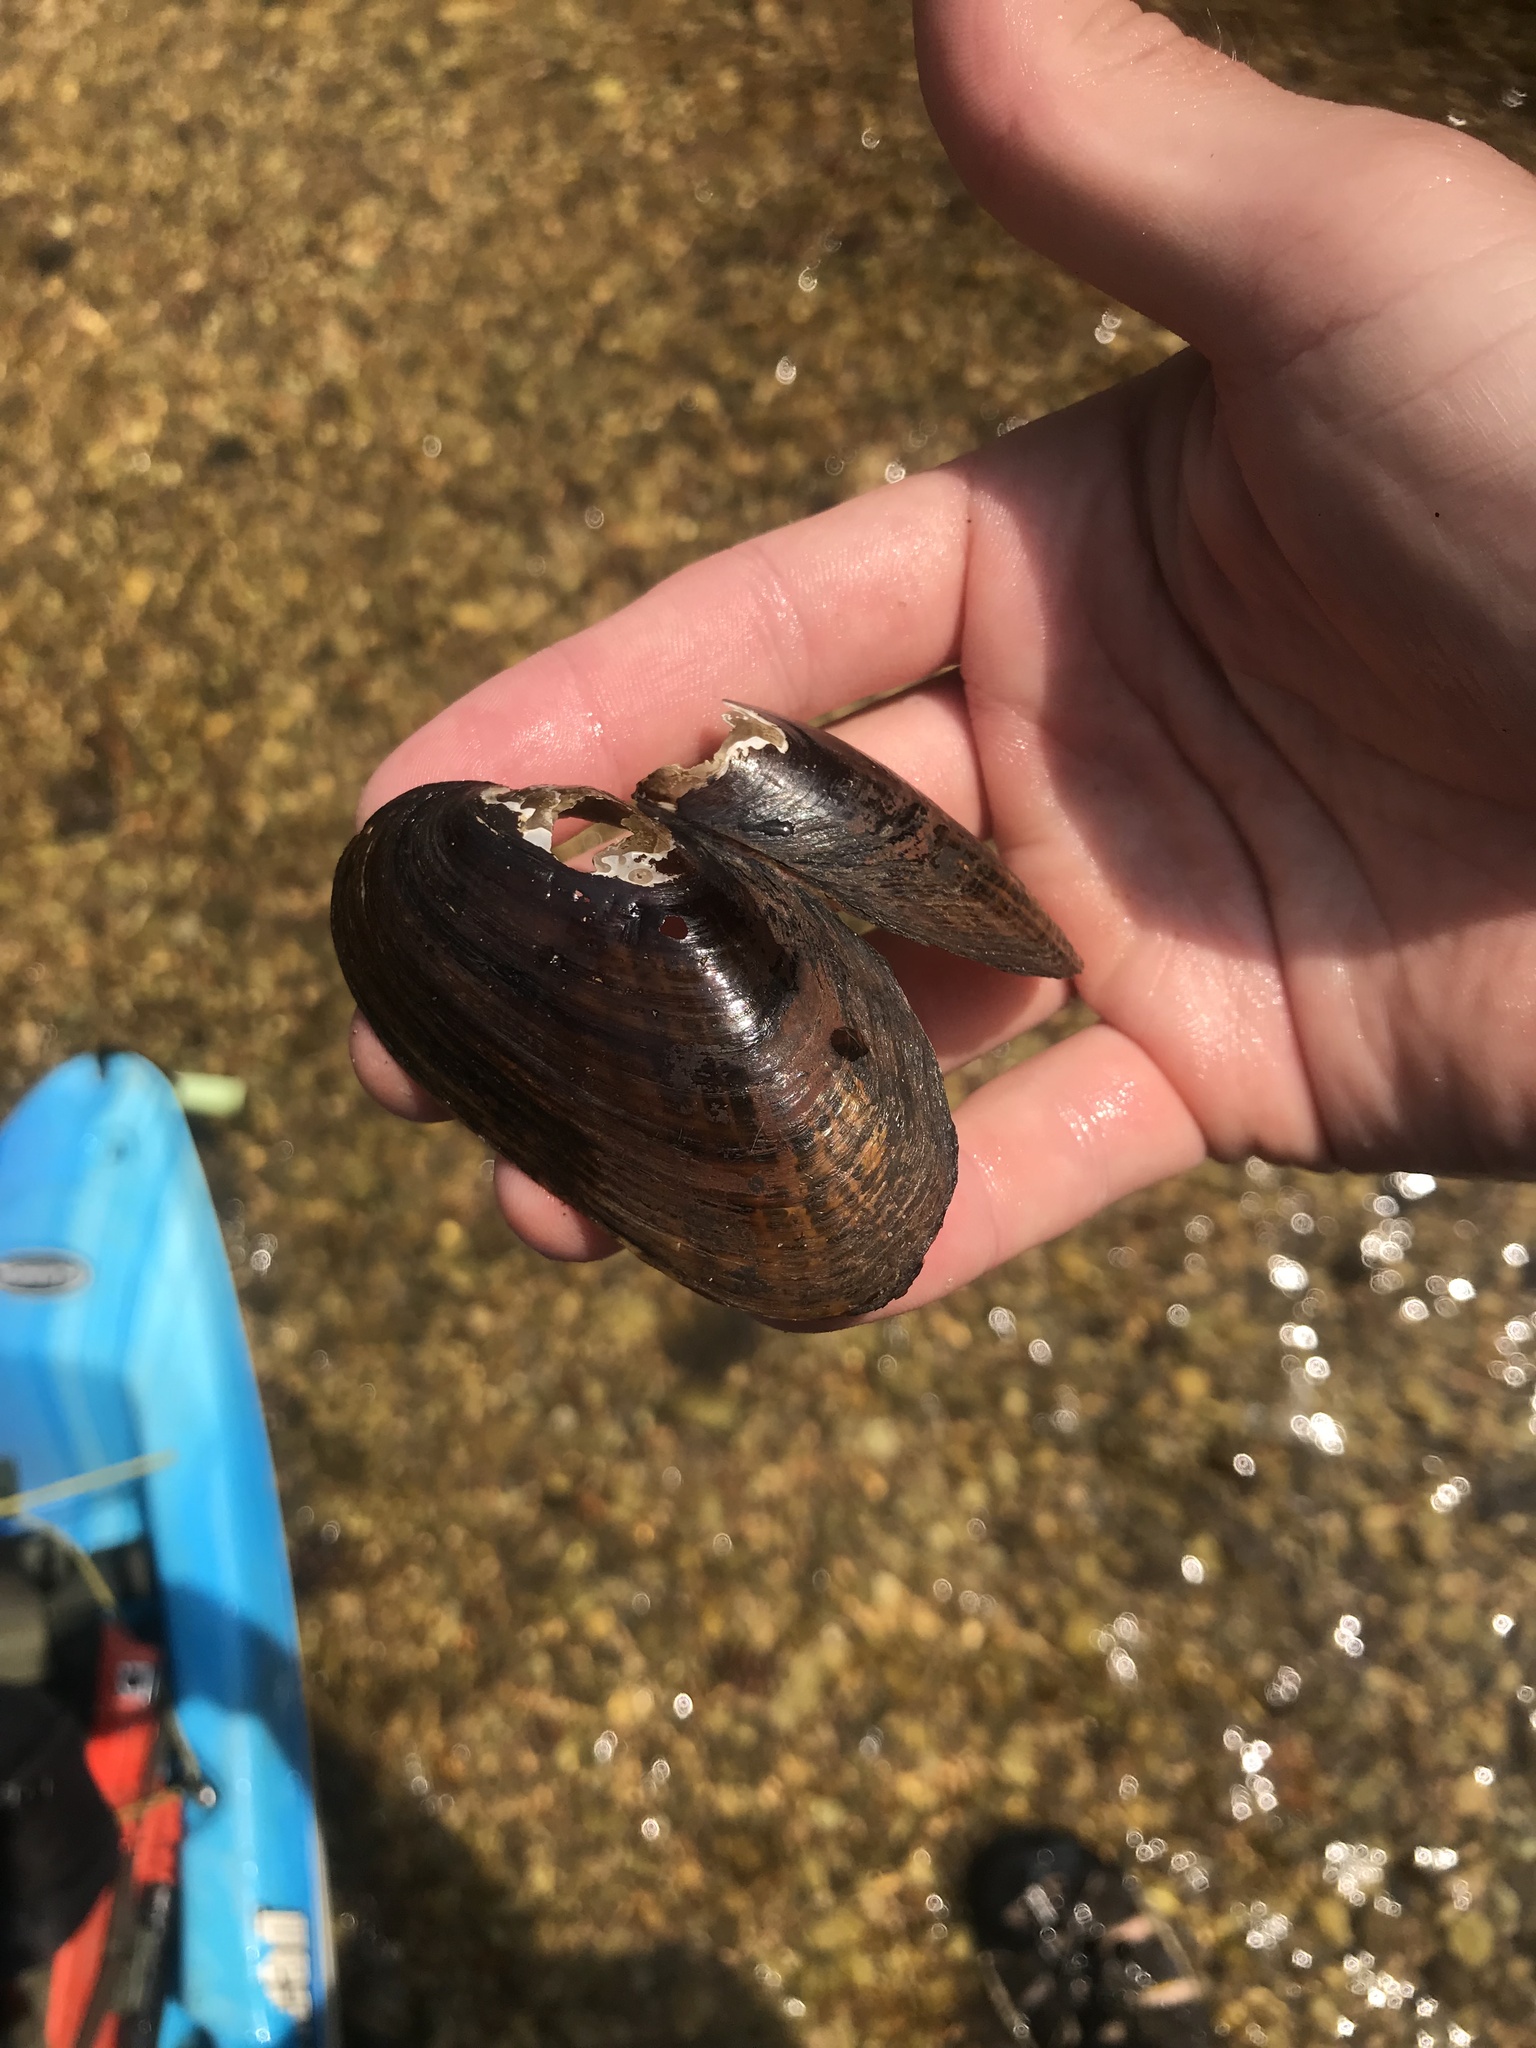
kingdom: Animalia
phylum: Mollusca
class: Bivalvia
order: Unionida
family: Unionidae
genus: Villosa
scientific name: Villosa vibex
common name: Southern rainbow
